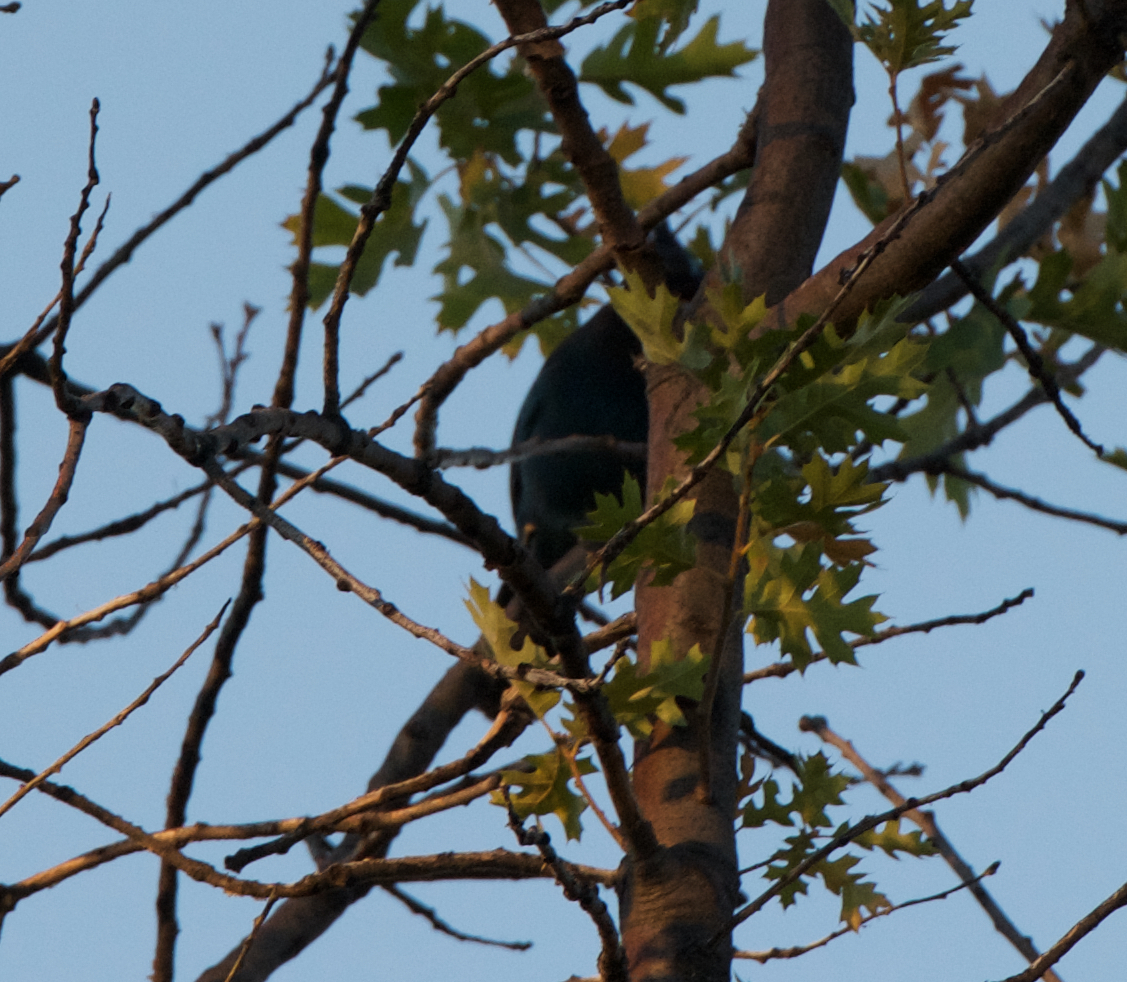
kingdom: Animalia
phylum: Chordata
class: Aves
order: Passeriformes
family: Corvidae
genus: Cyanocitta
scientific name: Cyanocitta stelleri
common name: Steller's jay
